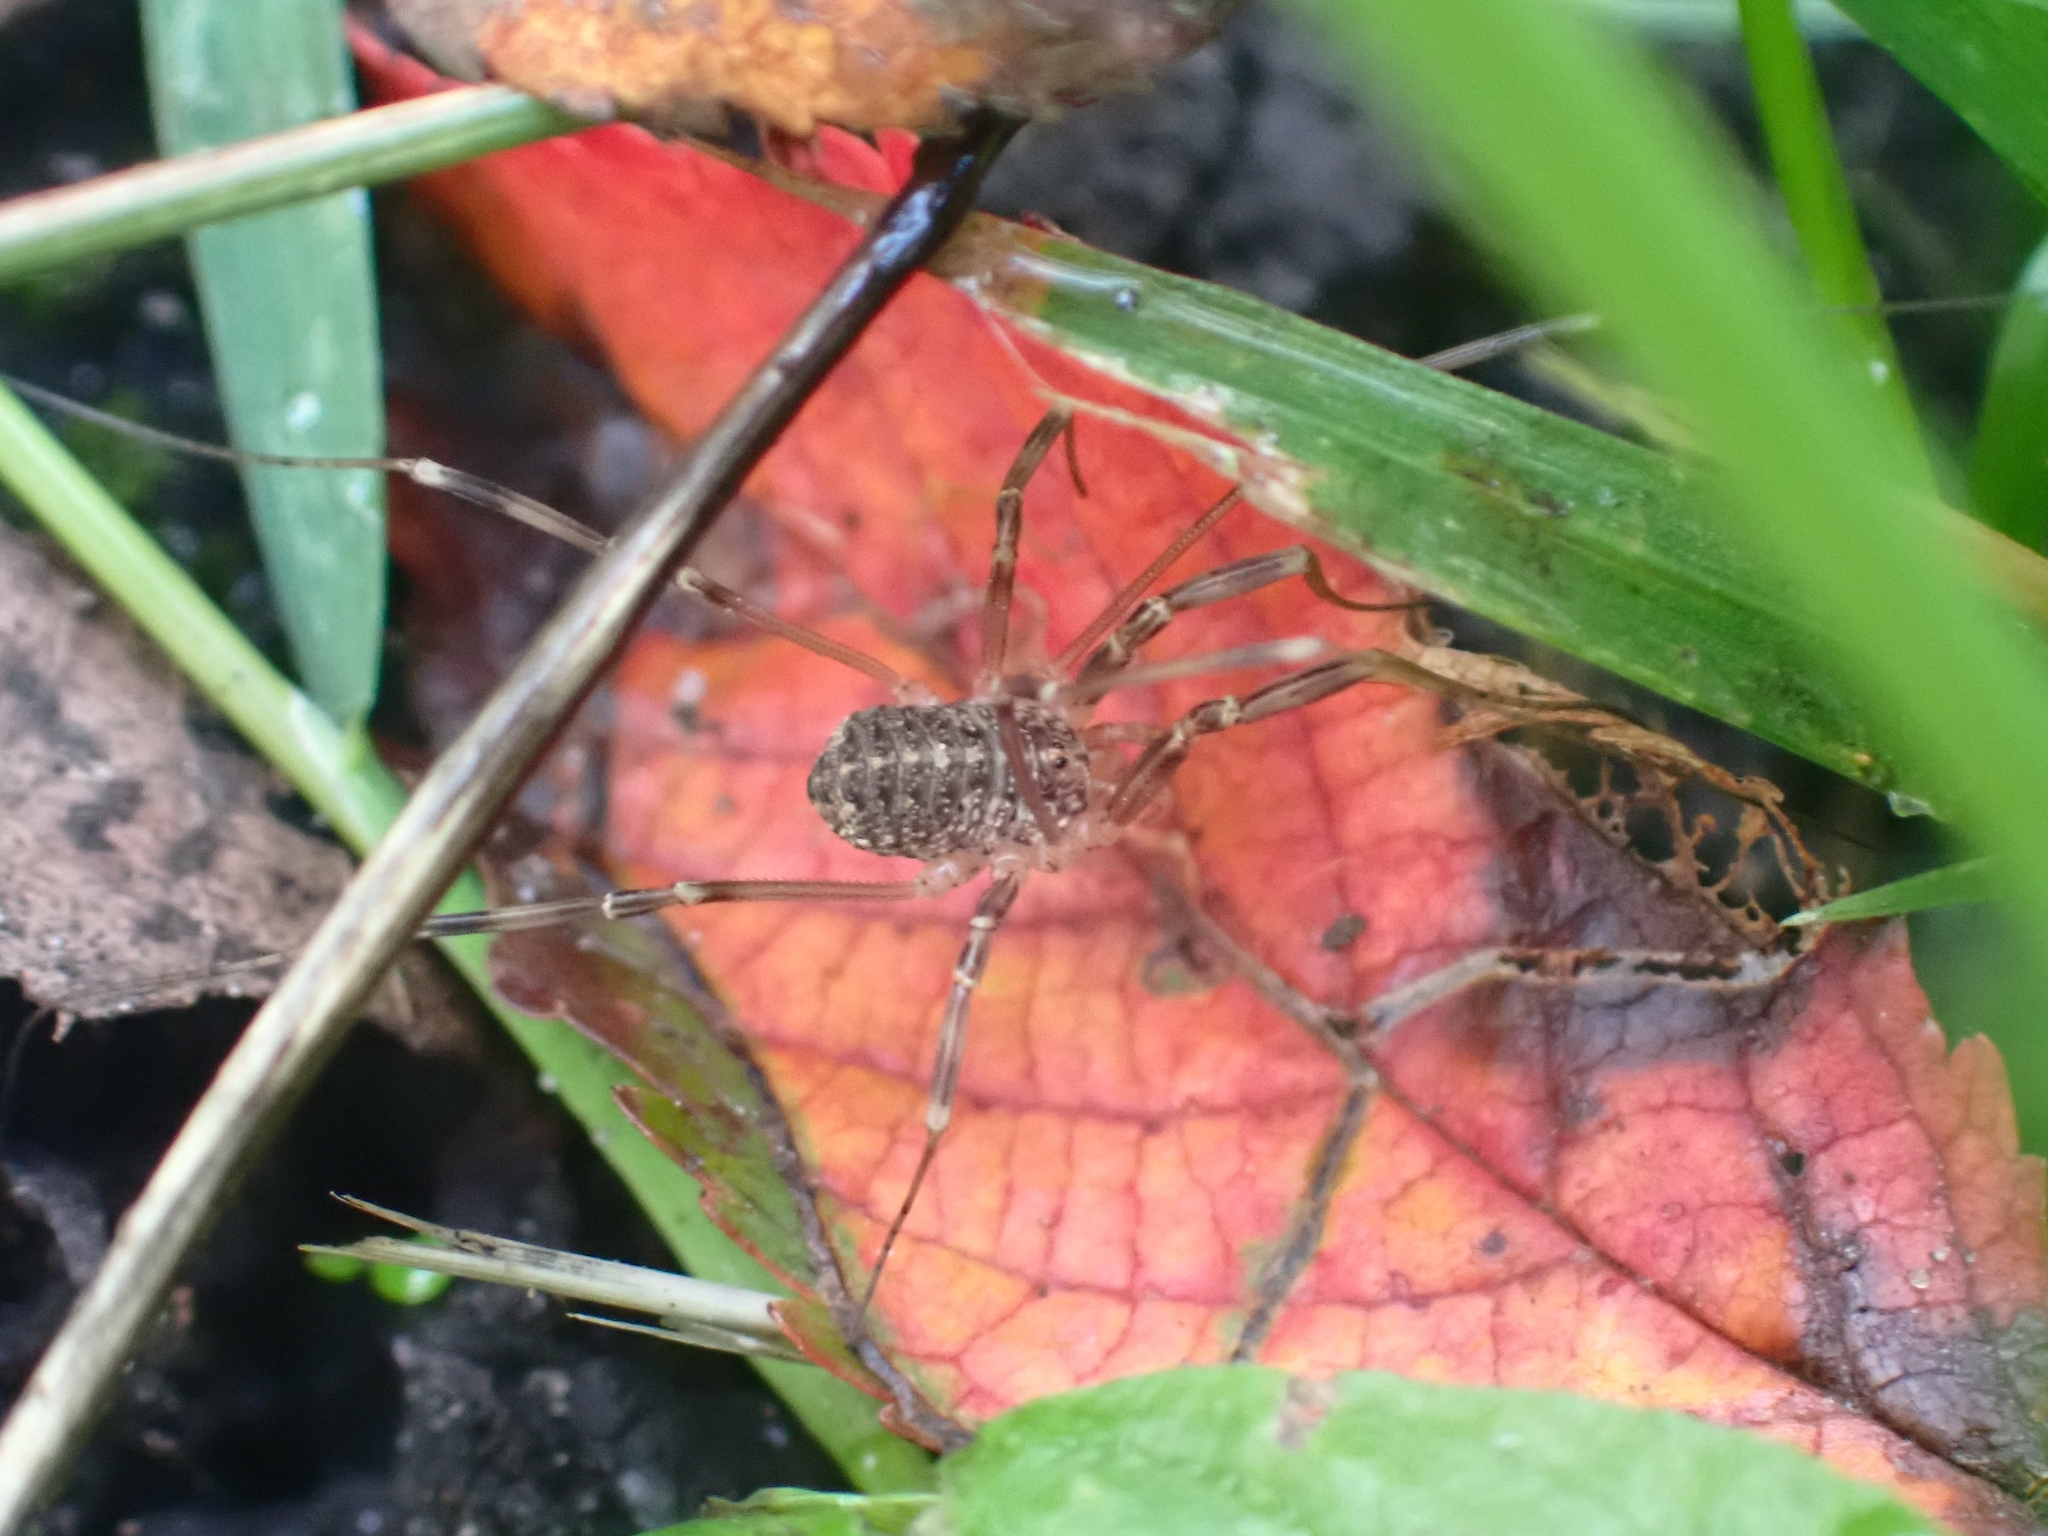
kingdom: Animalia
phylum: Arthropoda
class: Arachnida
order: Opiliones
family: Phalangiidae
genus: Opilio
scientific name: Opilio saxatilis
